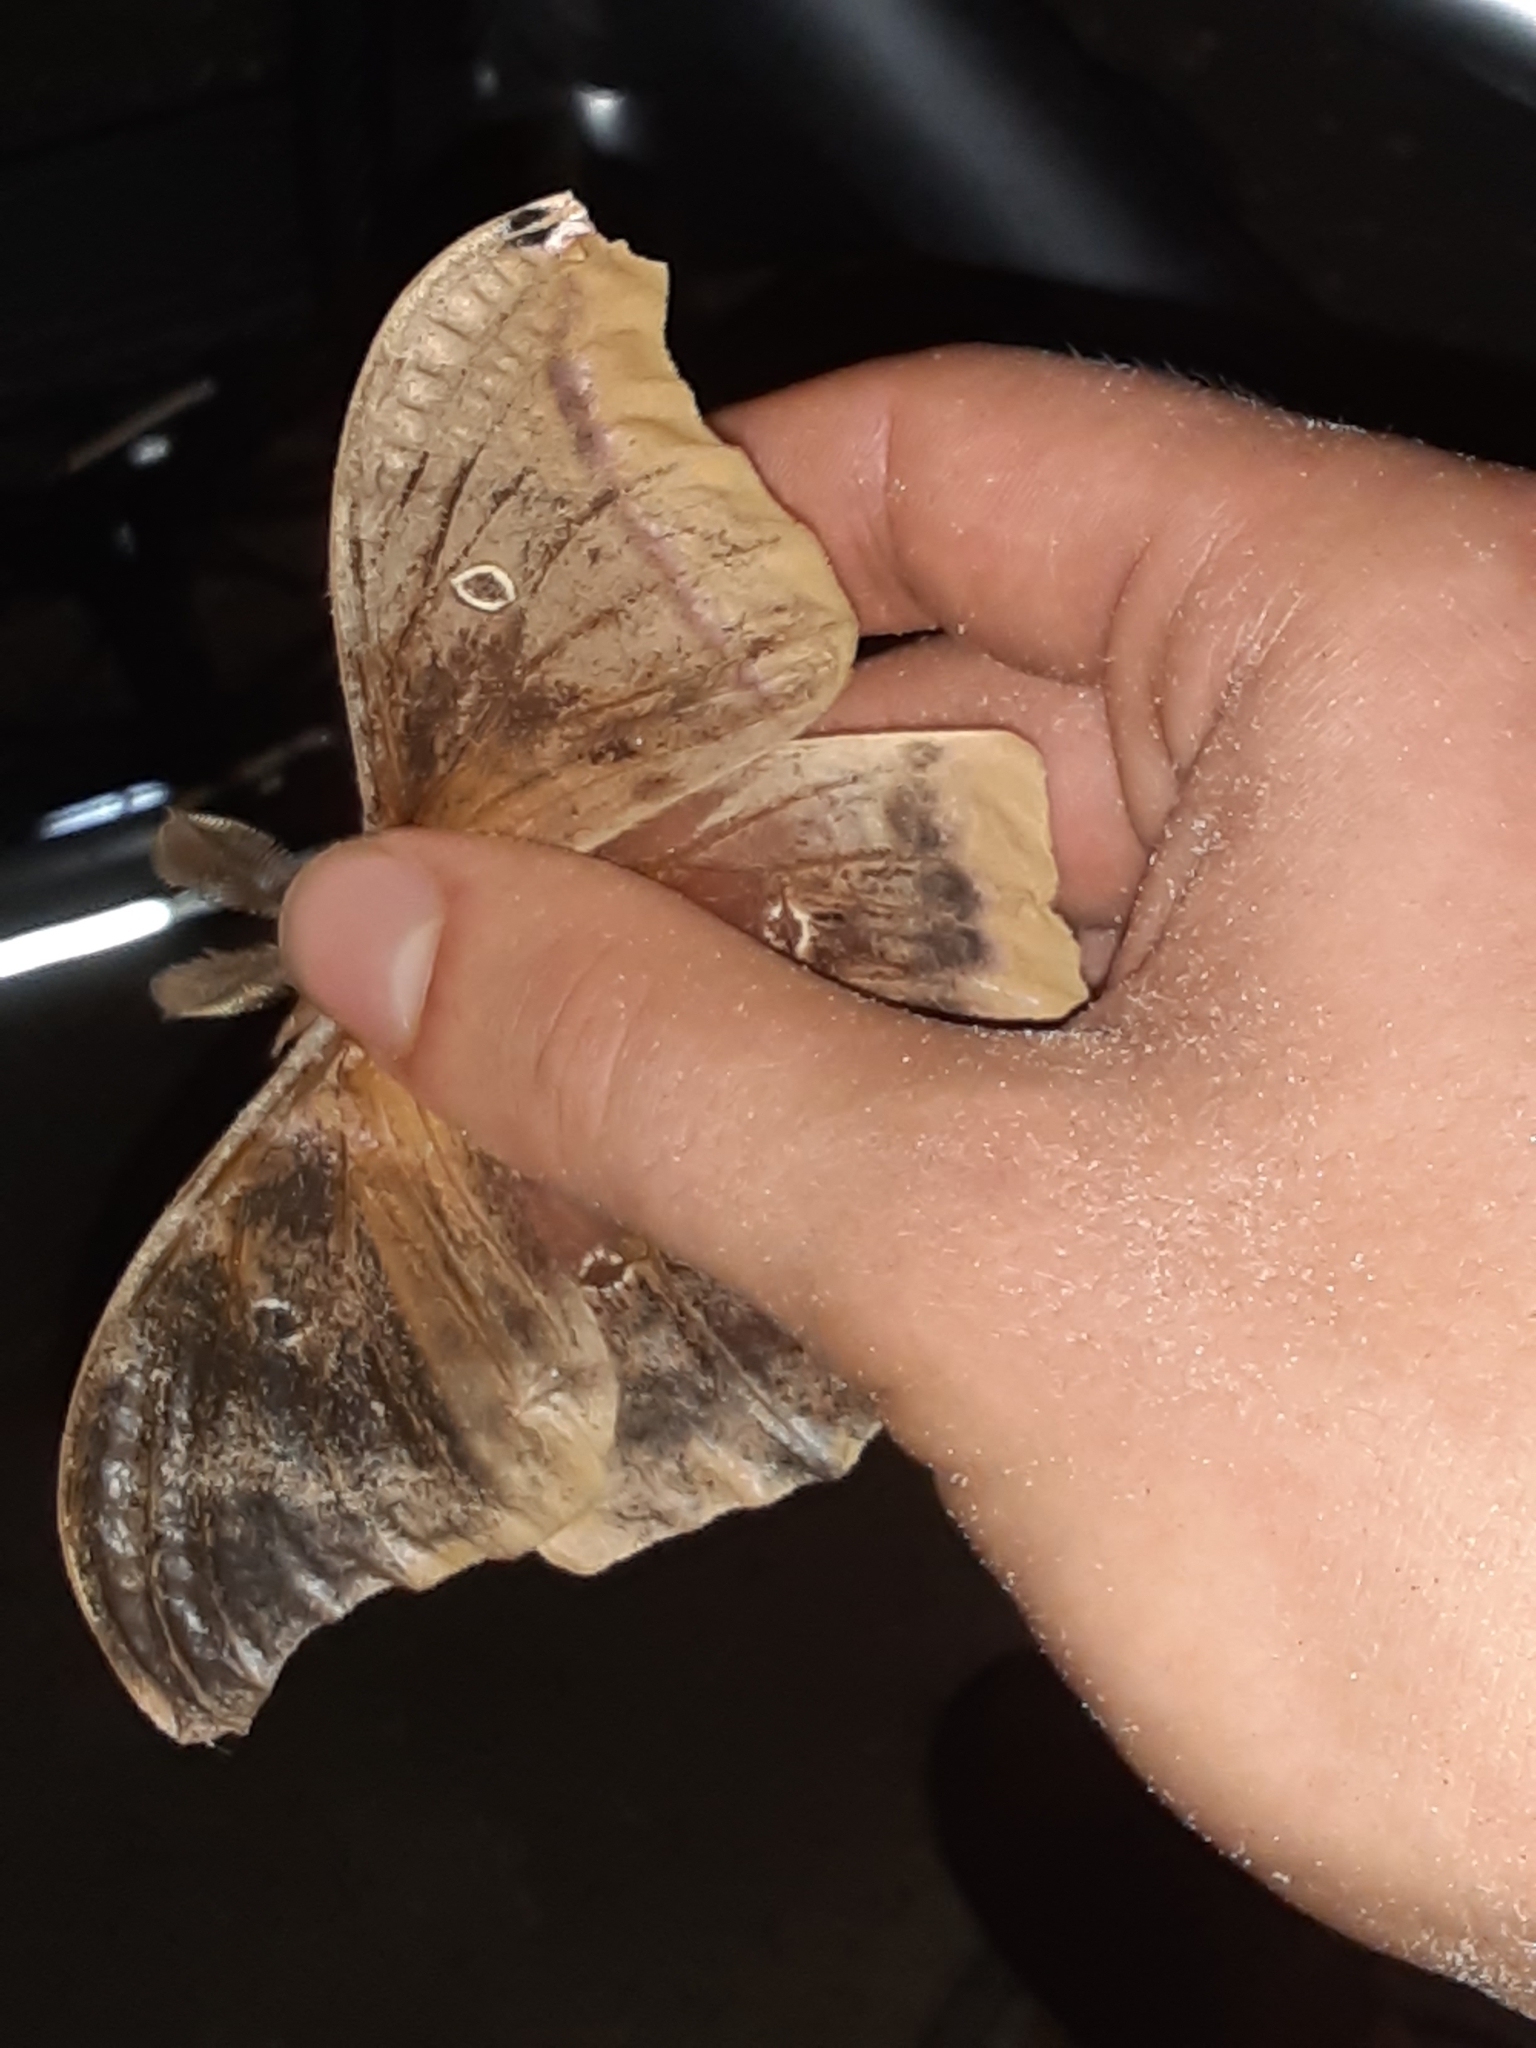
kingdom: Animalia
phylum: Arthropoda
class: Insecta
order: Lepidoptera
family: Saturniidae
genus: Antheraea
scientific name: Antheraea polyphemus
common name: Polyphemus moth
